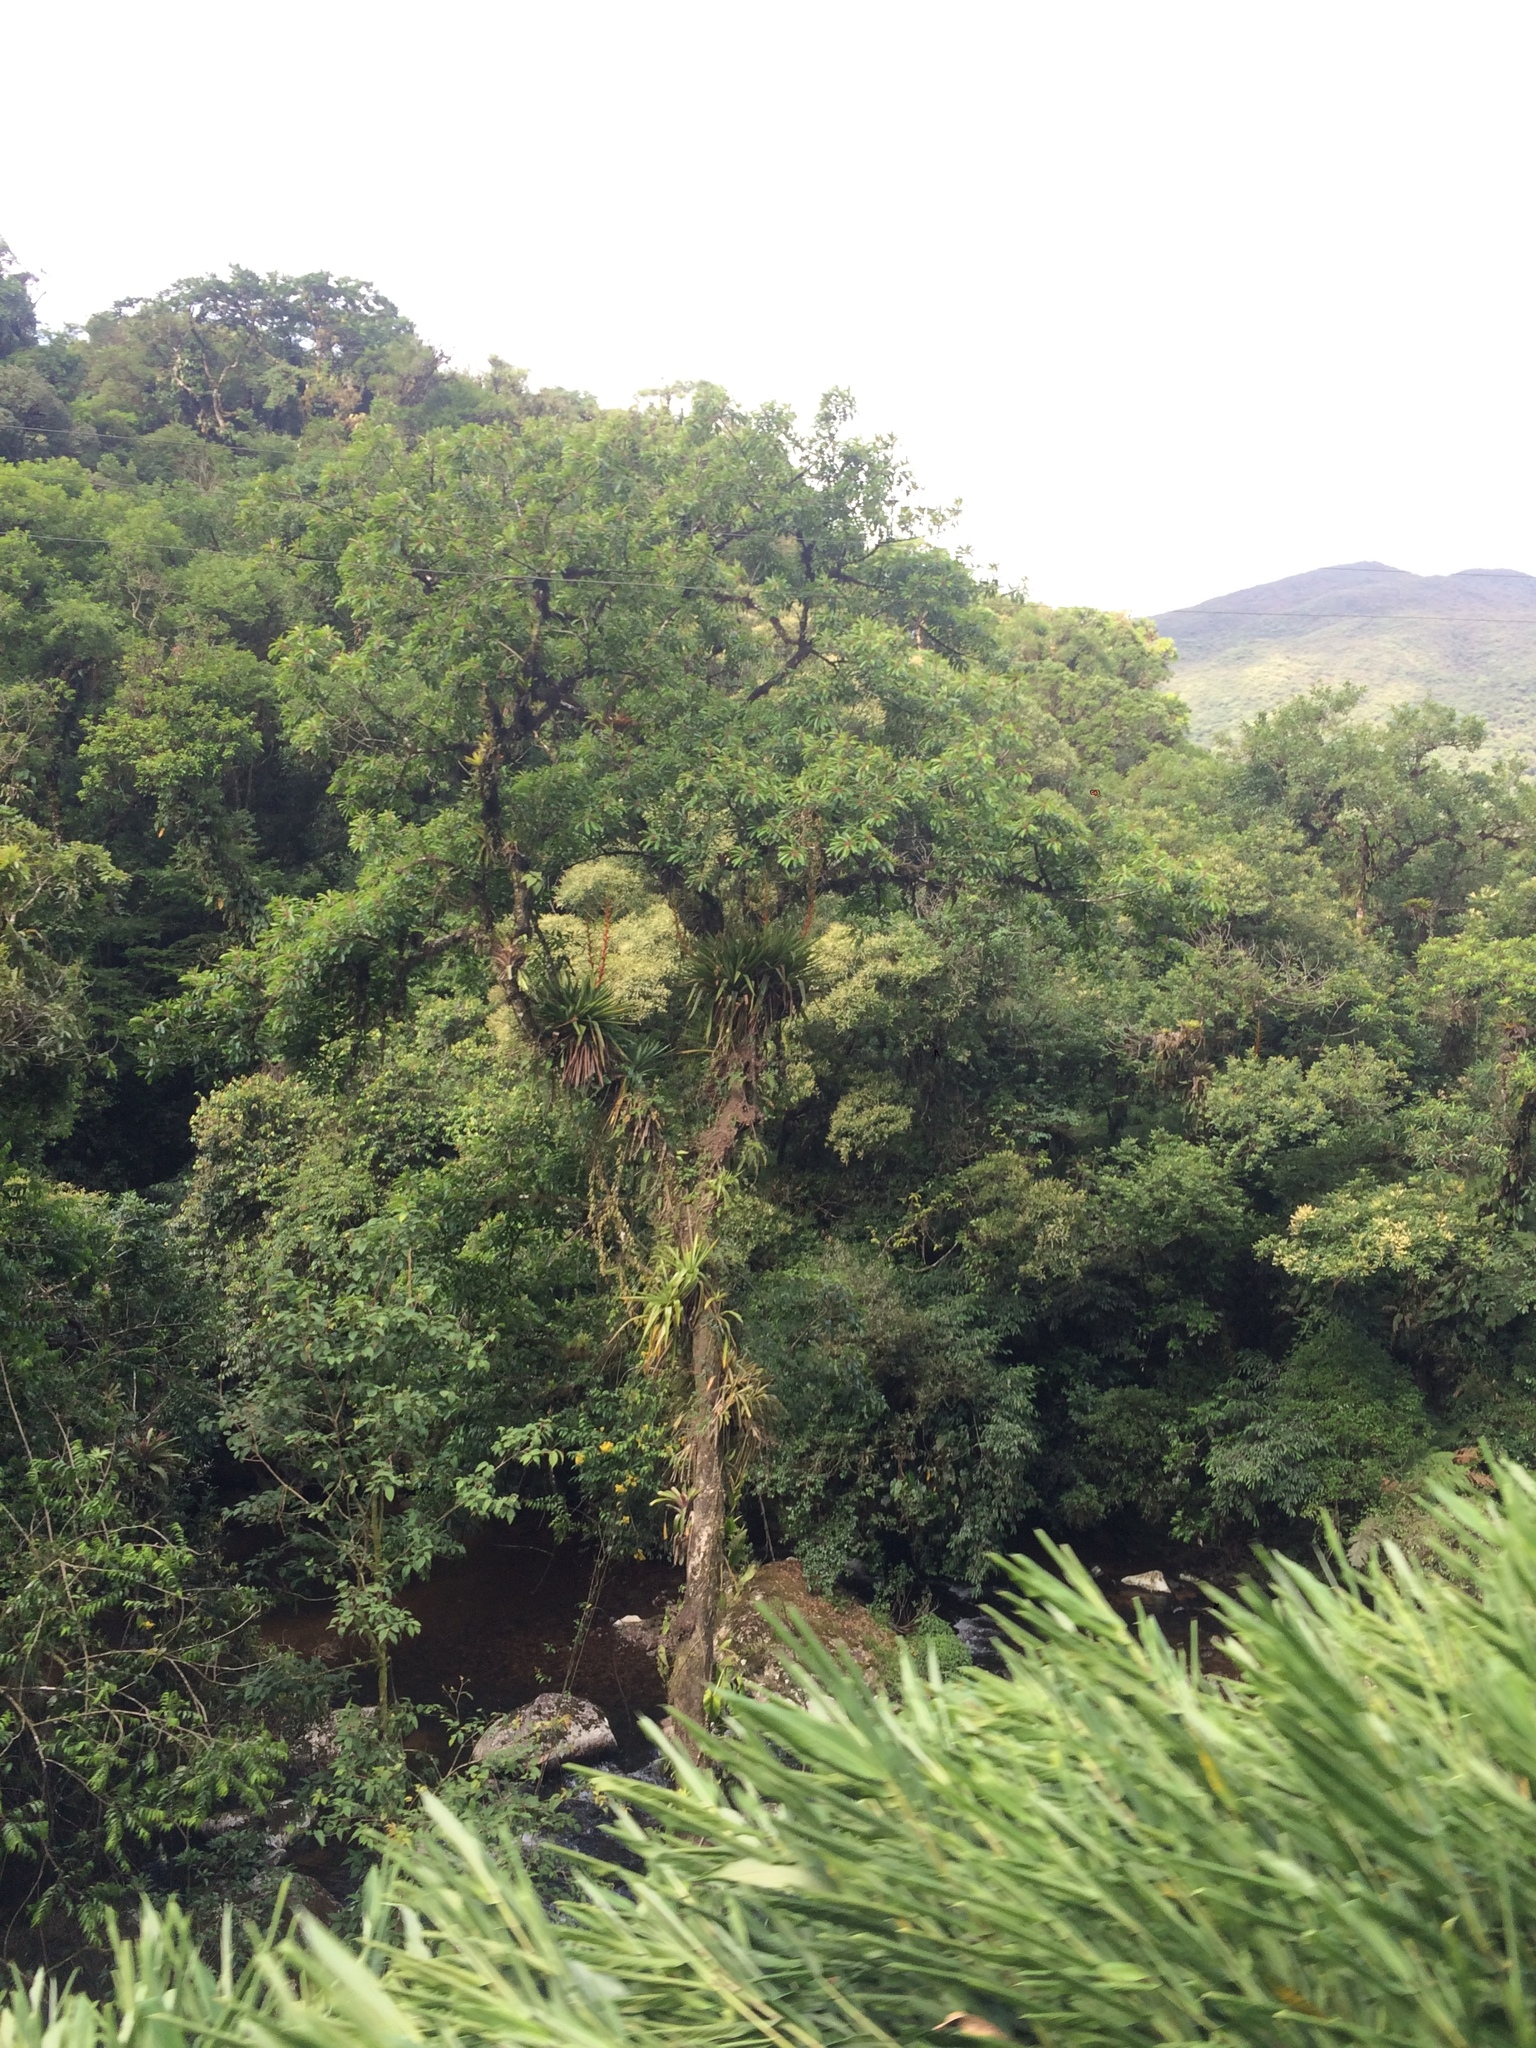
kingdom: Plantae
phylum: Tracheophyta
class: Liliopsida
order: Poales
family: Bromeliaceae
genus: Vriesea
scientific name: Vriesea altodaserrae
